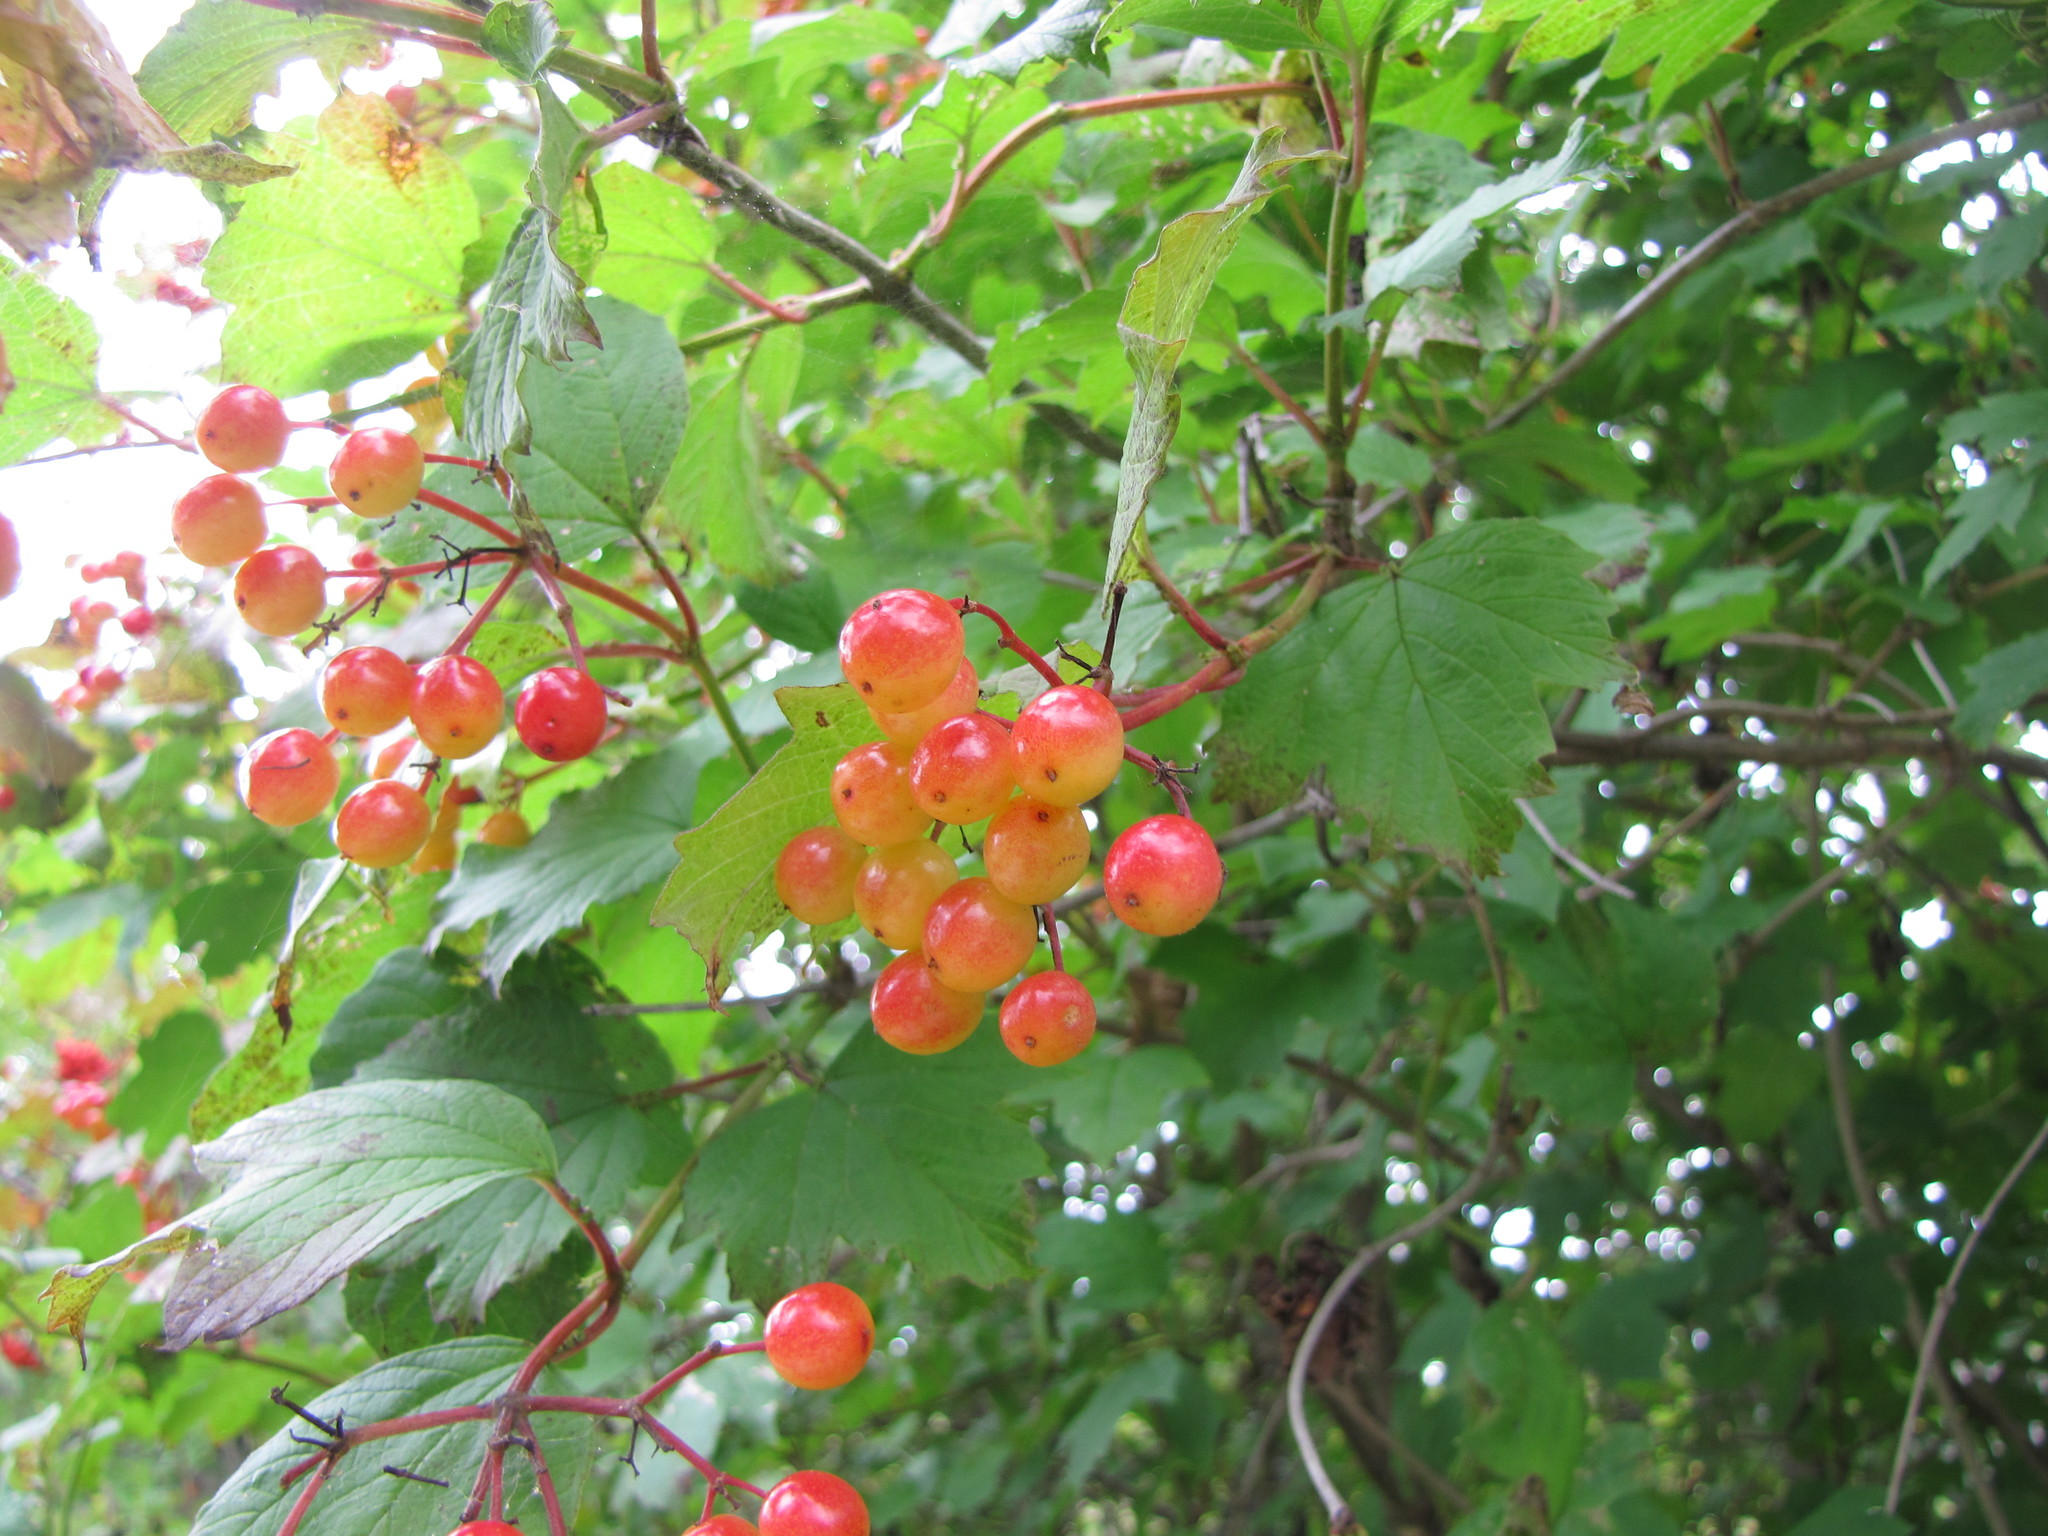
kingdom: Plantae
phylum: Tracheophyta
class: Magnoliopsida
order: Dipsacales
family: Viburnaceae
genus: Viburnum
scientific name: Viburnum opulus
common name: Guelder-rose
